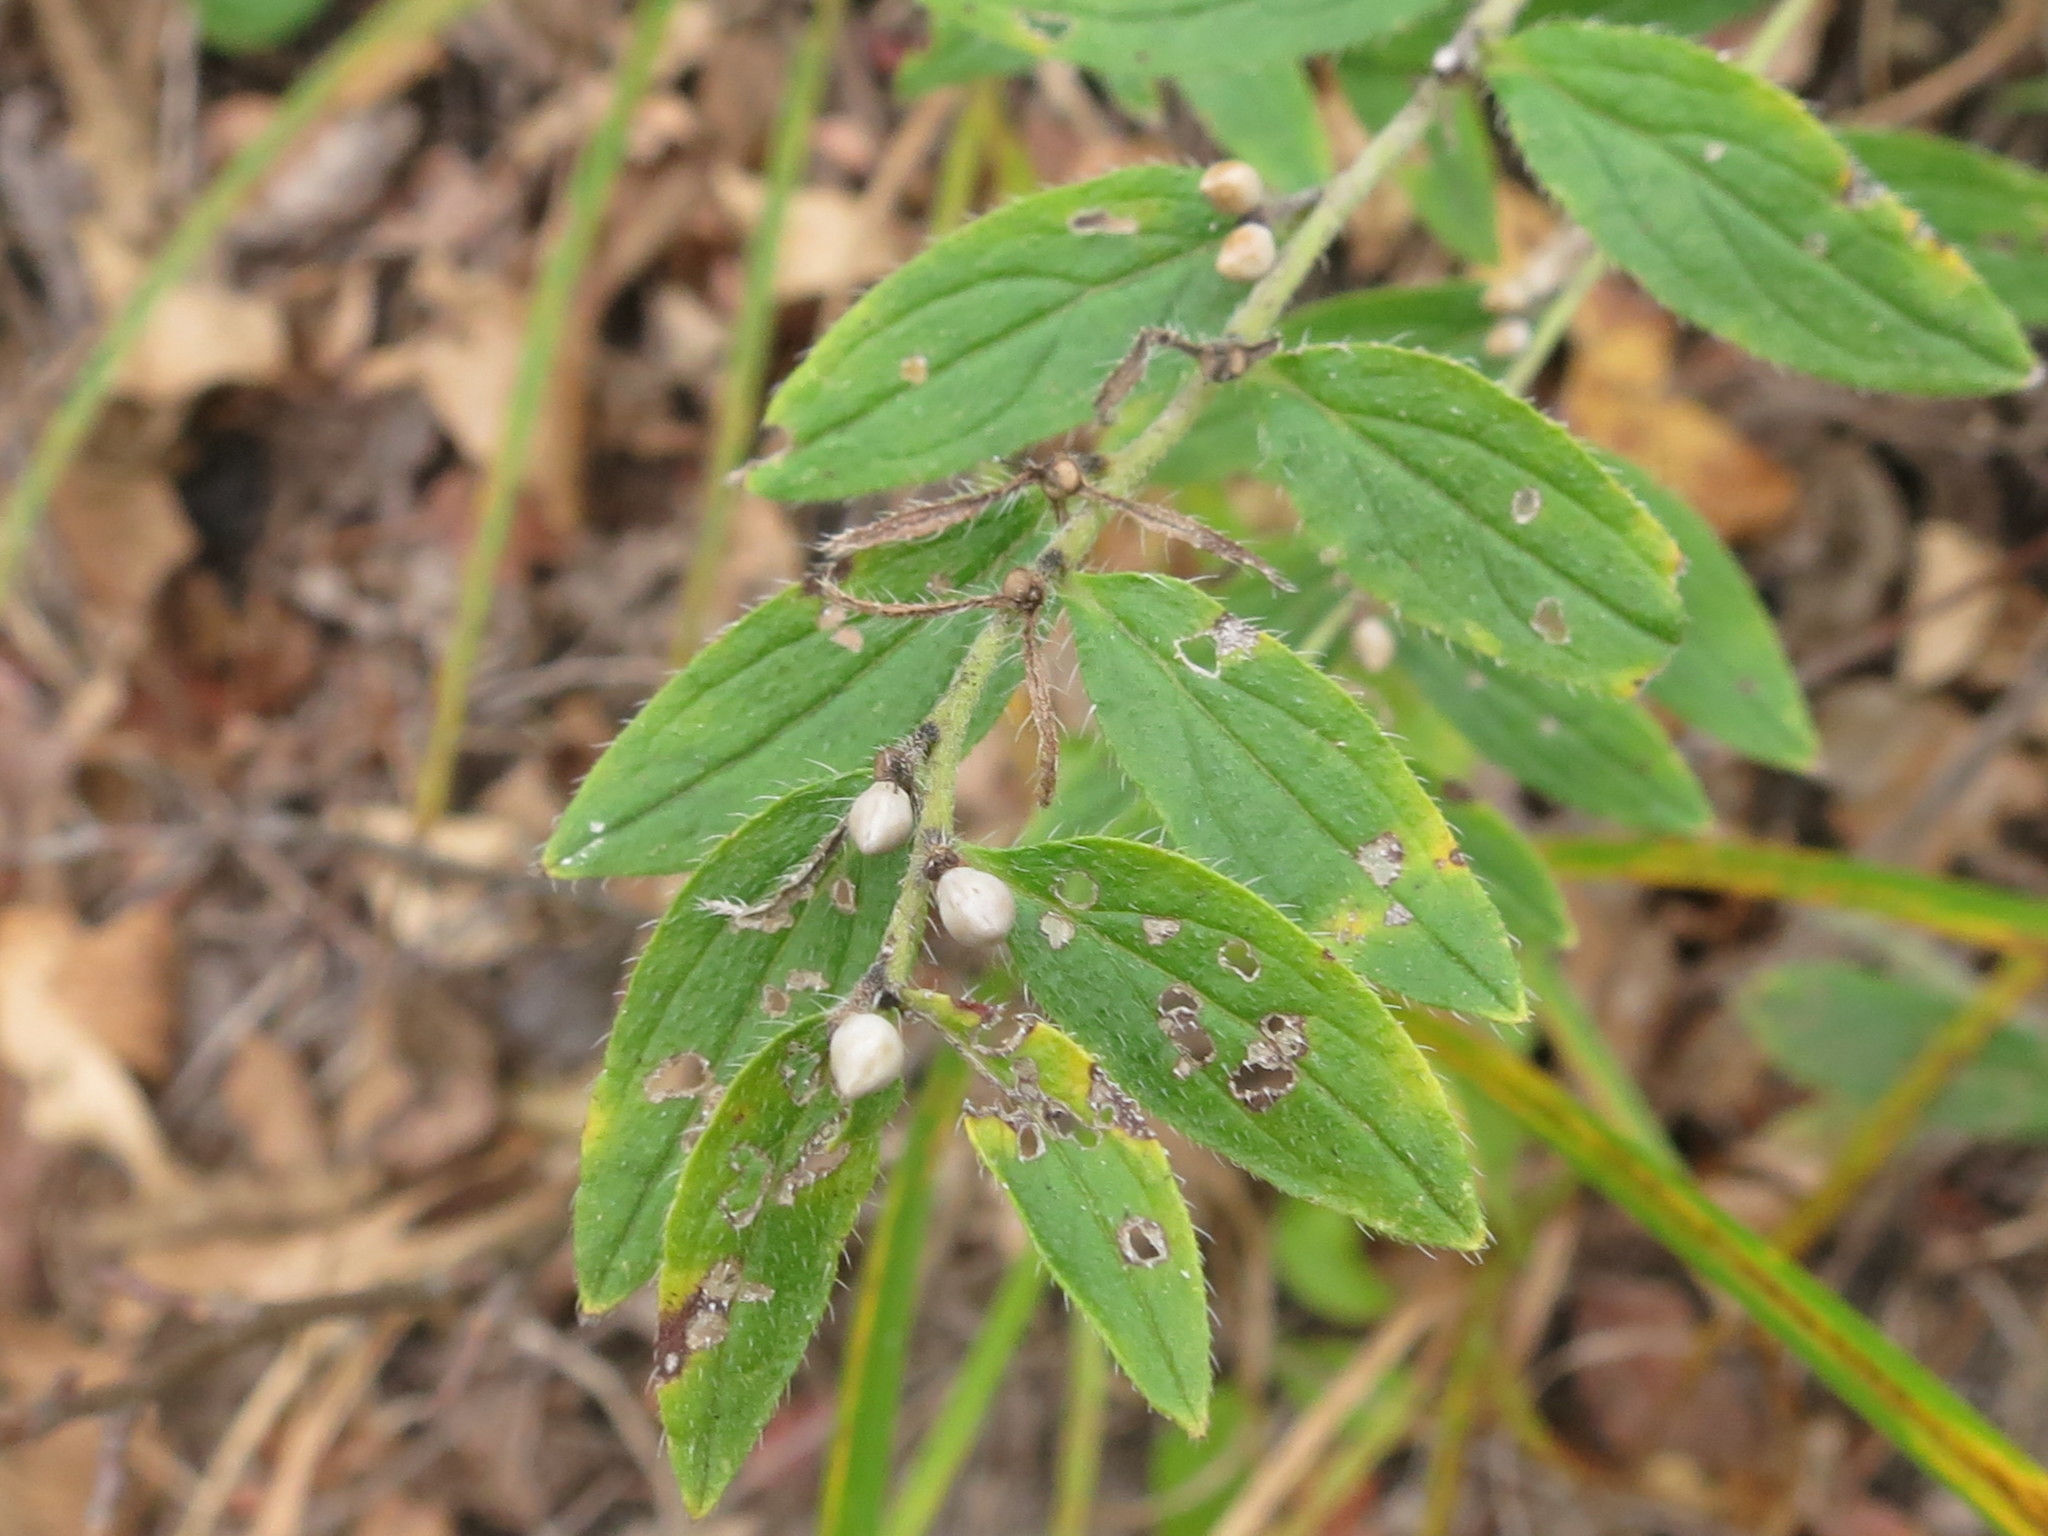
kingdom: Plantae
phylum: Tracheophyta
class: Magnoliopsida
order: Boraginales
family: Boraginaceae
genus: Lithospermum
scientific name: Lithospermum erythrorhizon
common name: Purple gromwell
